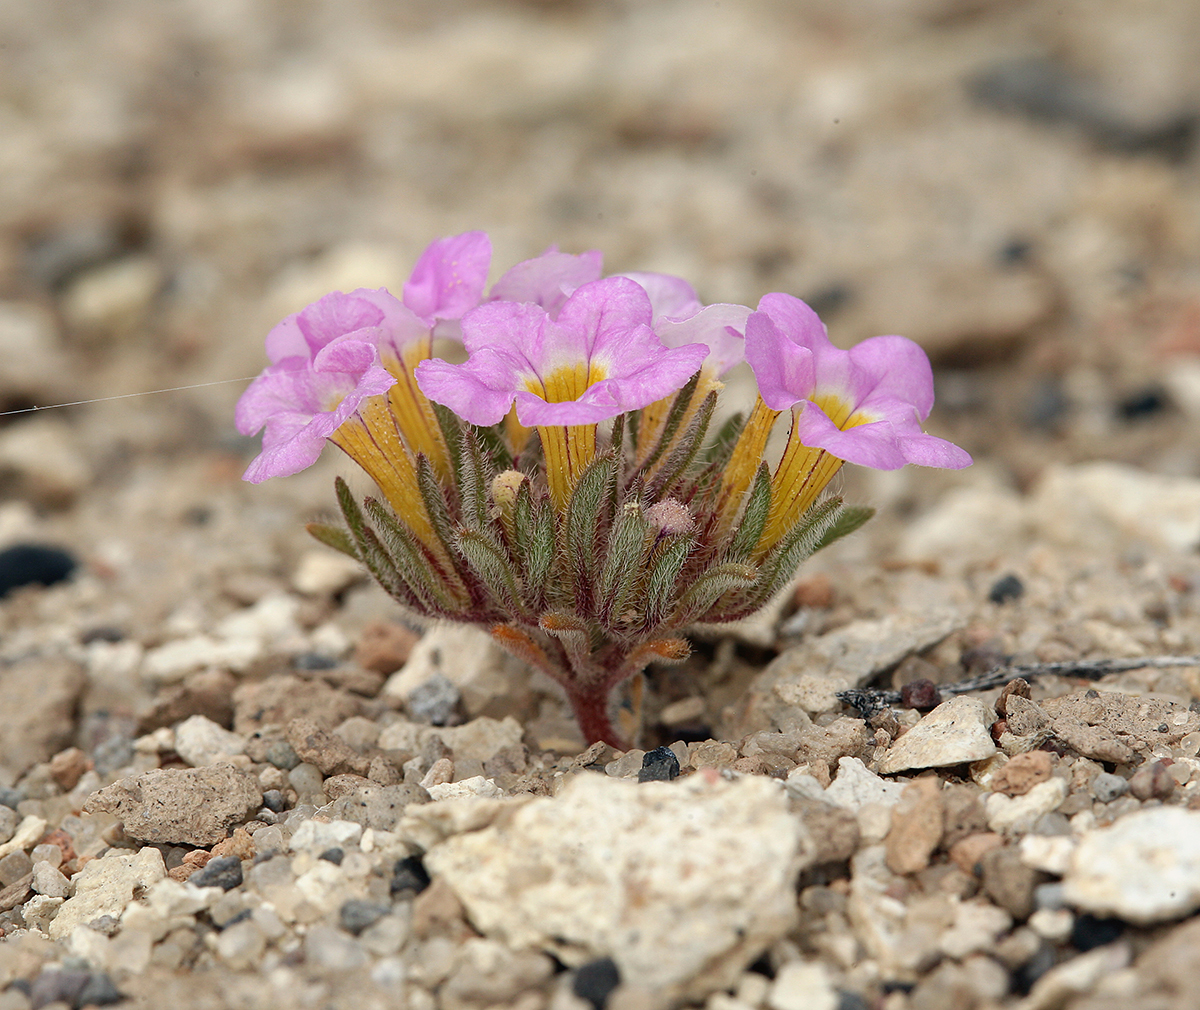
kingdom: Plantae
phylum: Tracheophyta
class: Magnoliopsida
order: Boraginales
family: Namaceae
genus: Nama
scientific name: Nama aretioides
